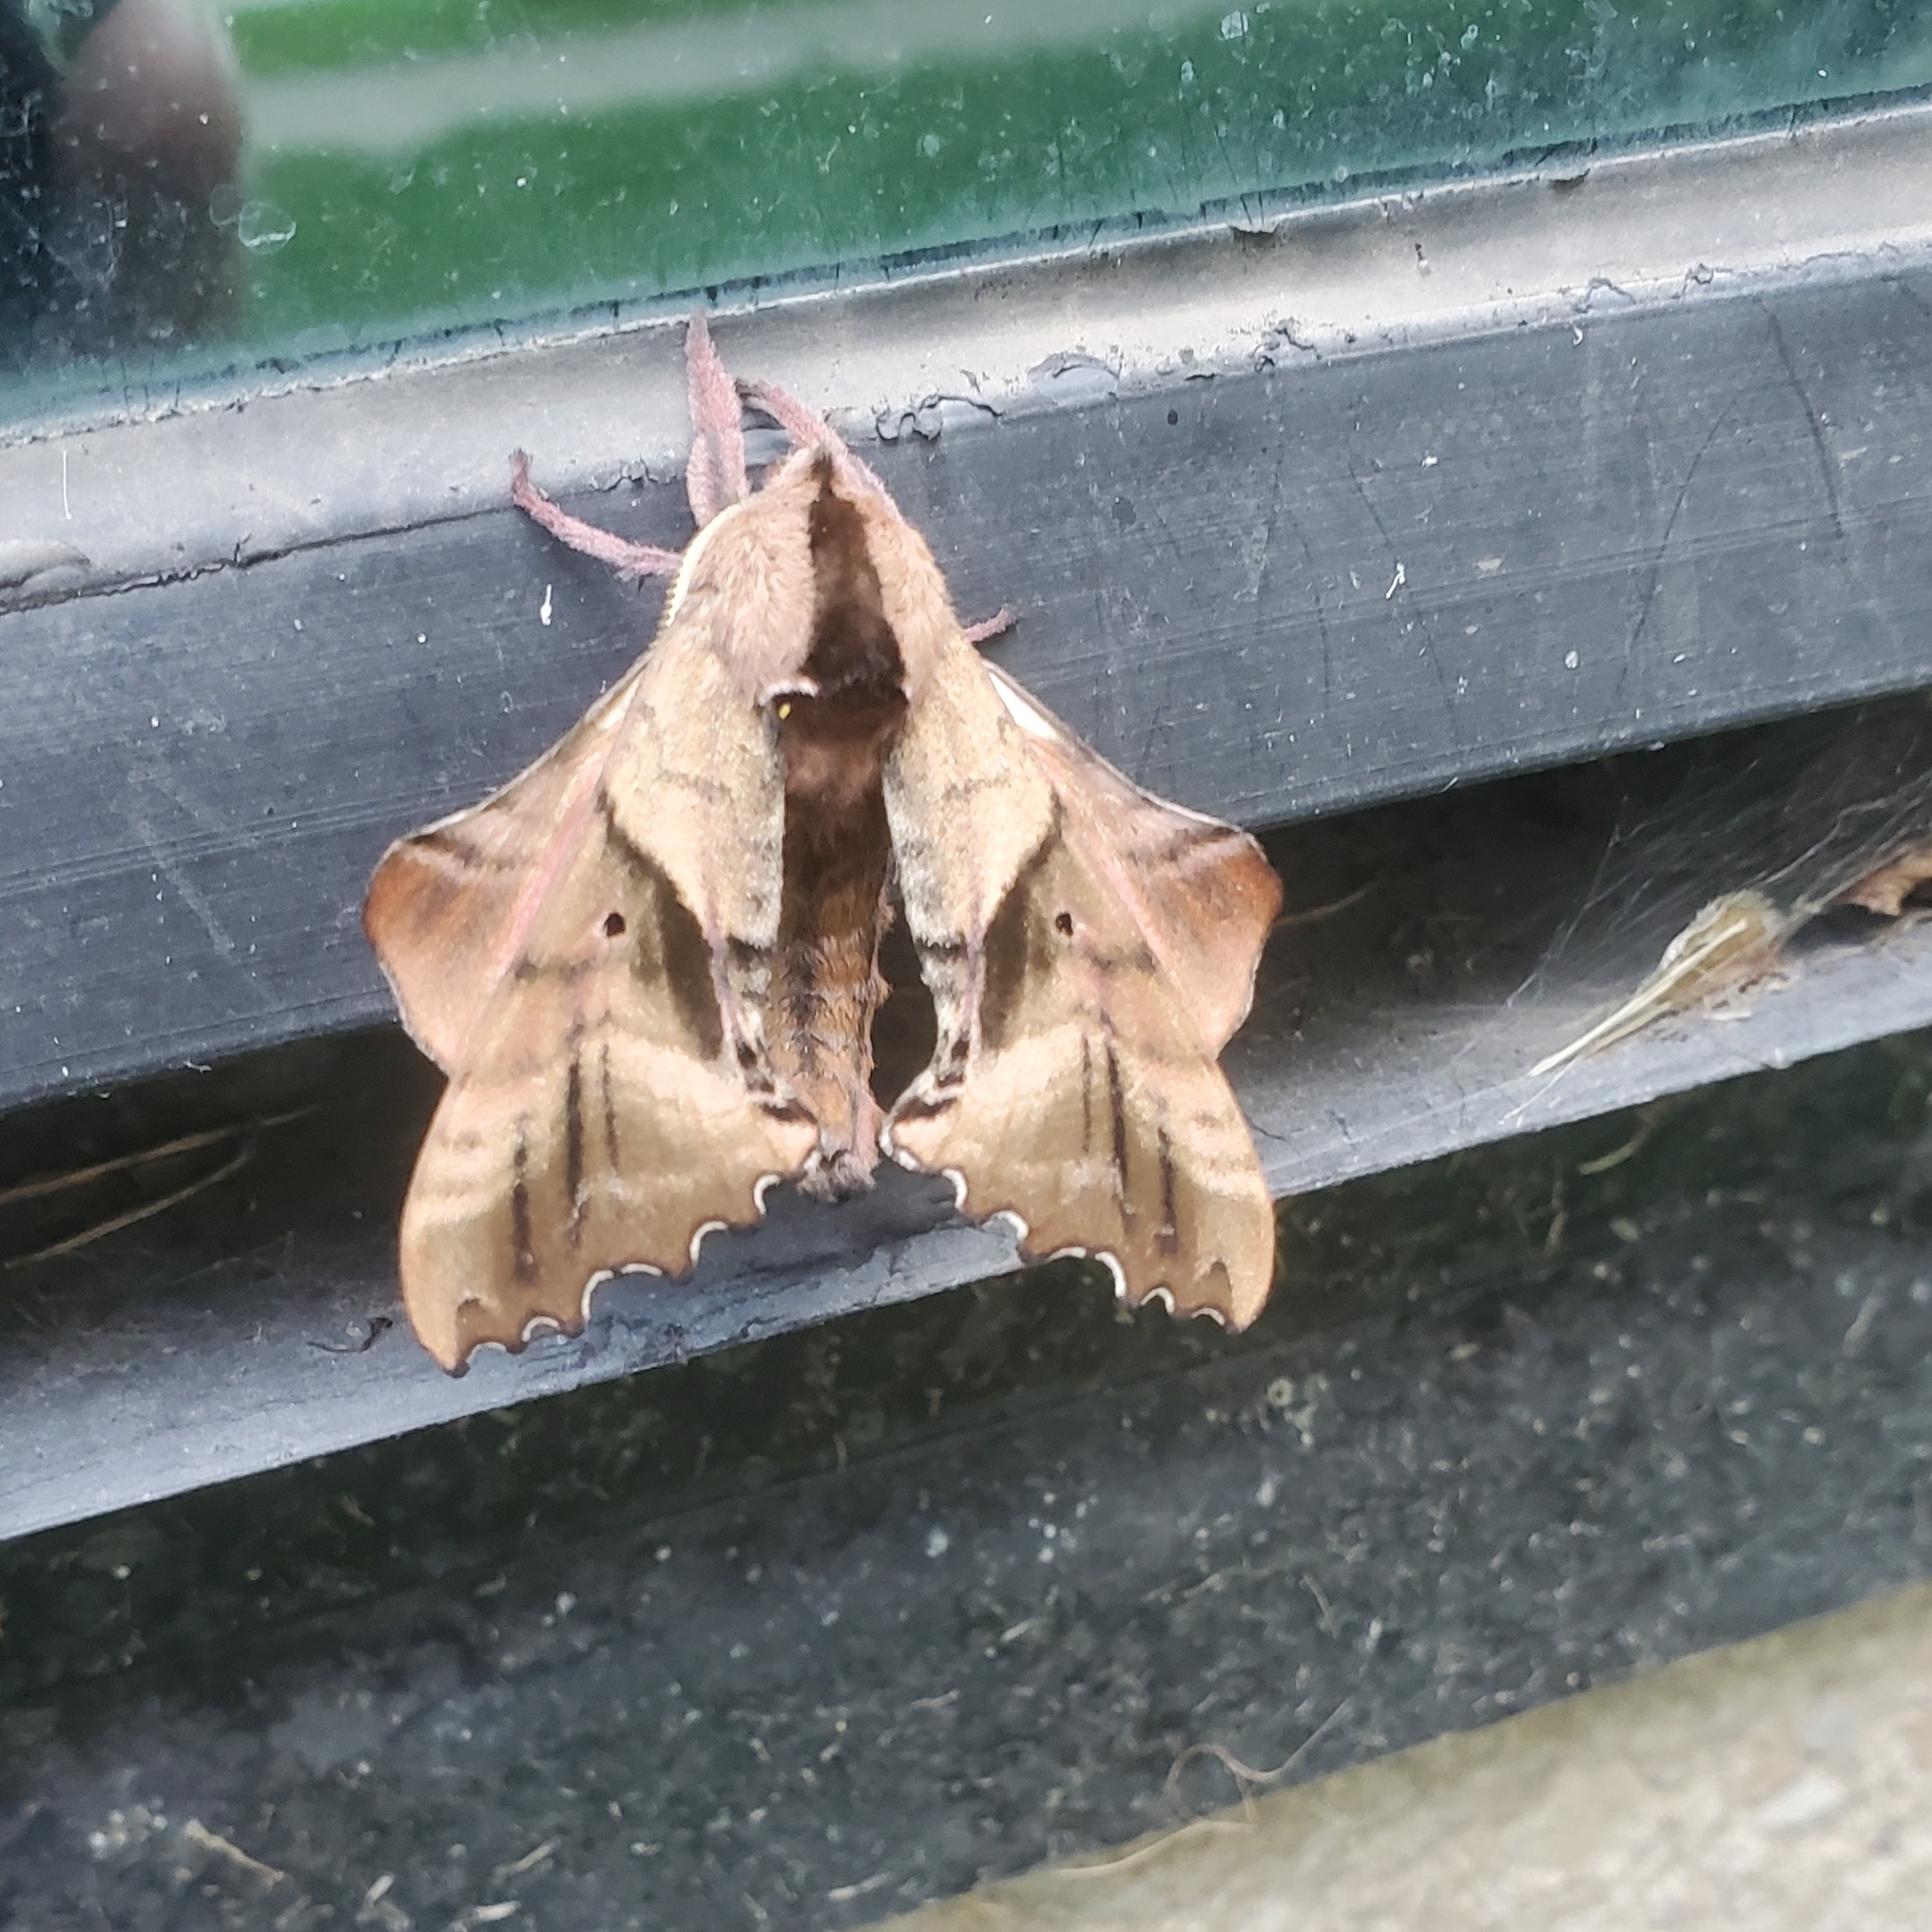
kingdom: Animalia
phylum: Arthropoda
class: Insecta
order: Lepidoptera
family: Sphingidae
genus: Paonias
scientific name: Paonias excaecata
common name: Blind-eyed sphinx
